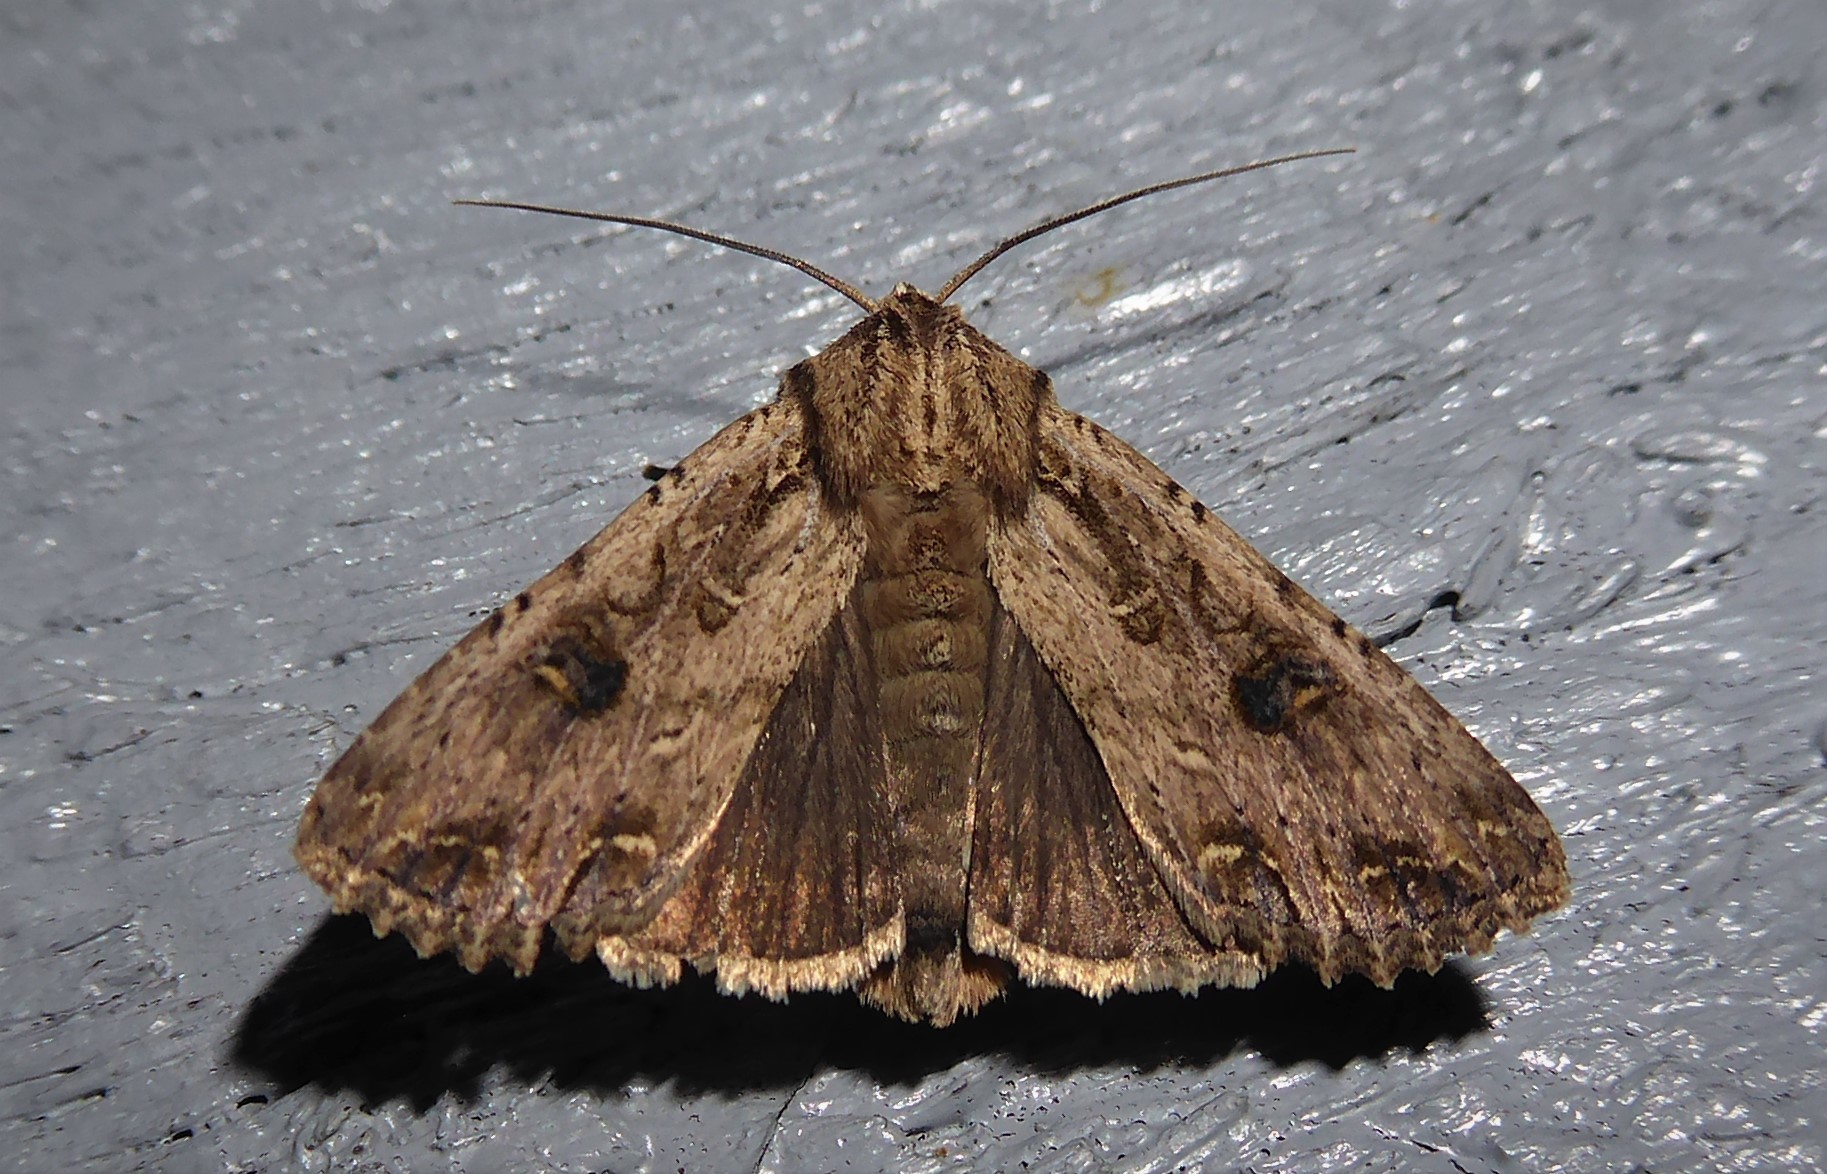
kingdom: Animalia
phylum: Arthropoda
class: Insecta
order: Lepidoptera
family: Noctuidae
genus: Ichneutica
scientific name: Ichneutica lignana
